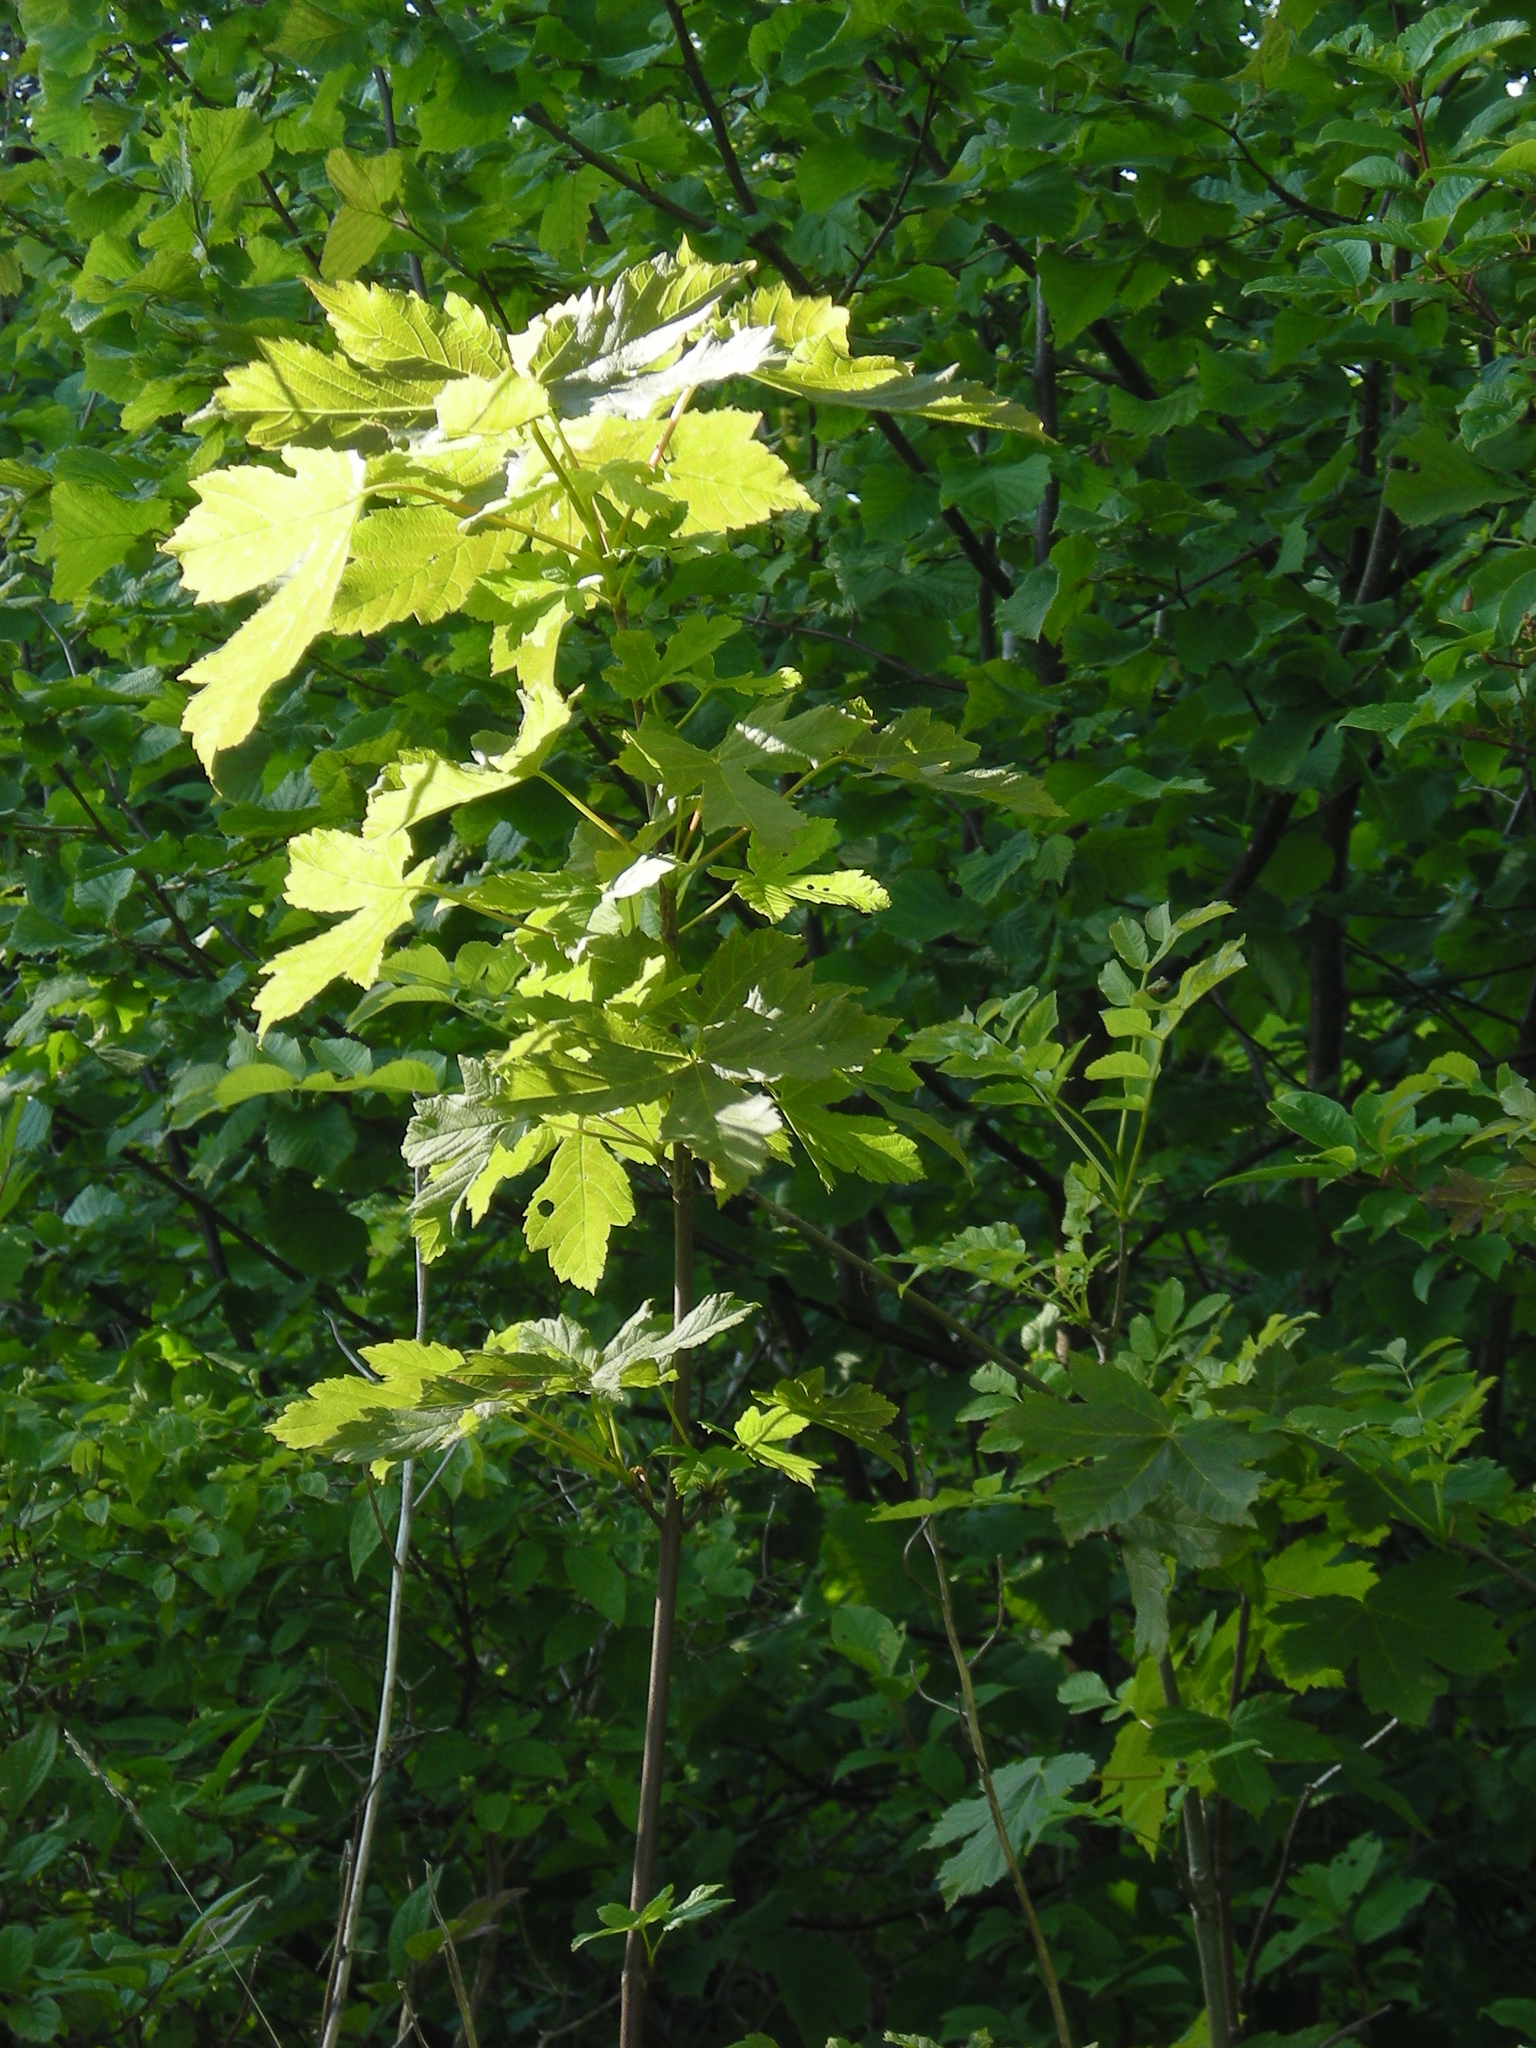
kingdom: Plantae
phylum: Tracheophyta
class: Magnoliopsida
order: Sapindales
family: Sapindaceae
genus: Acer
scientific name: Acer pseudoplatanus
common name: Sycamore
